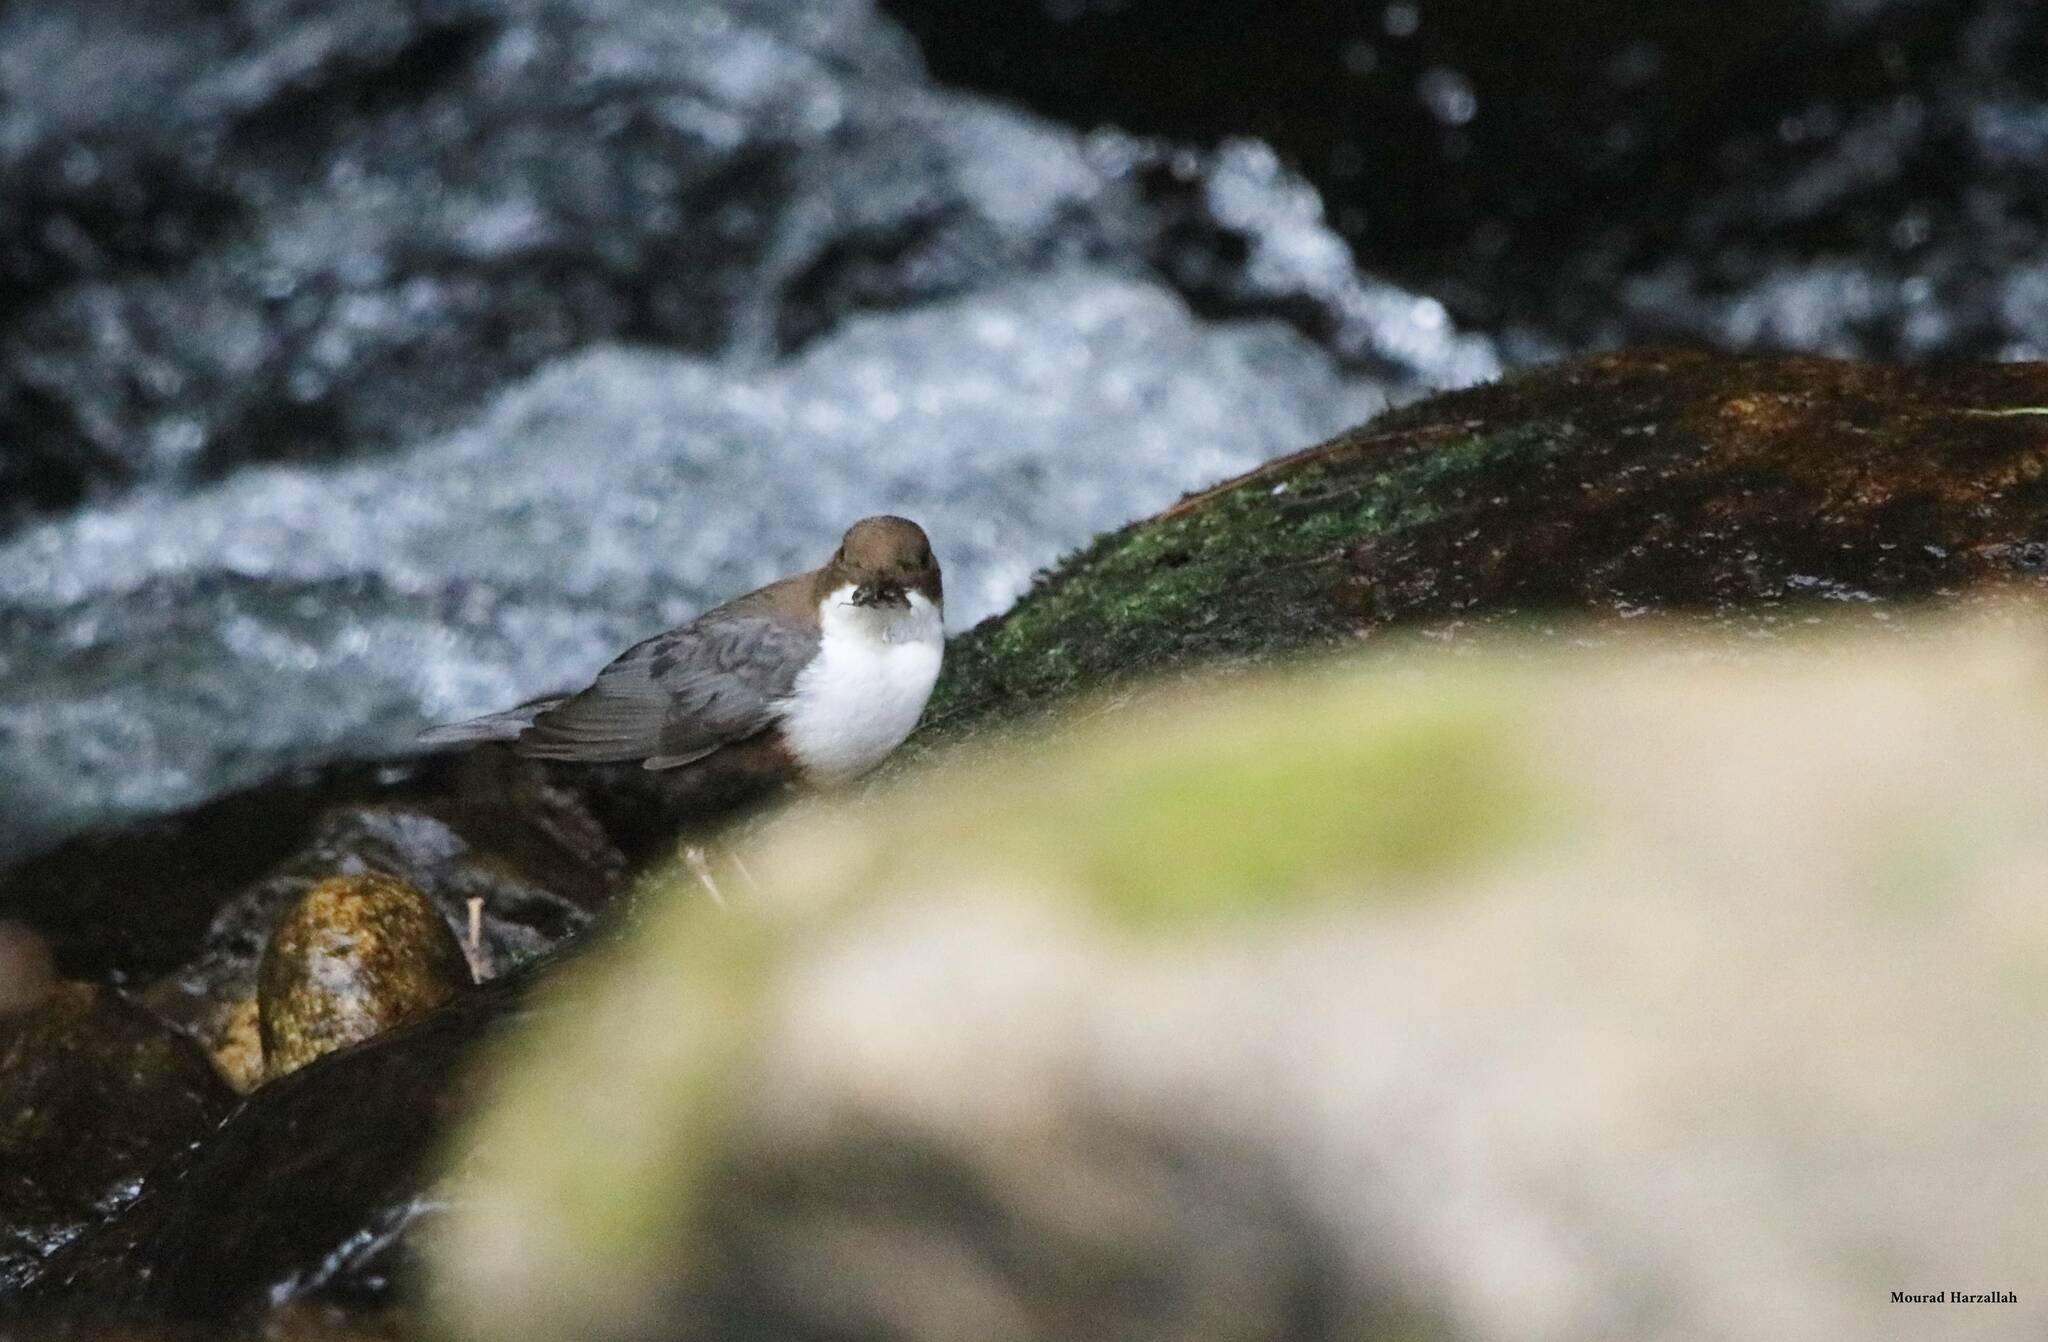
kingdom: Animalia
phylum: Chordata
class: Aves
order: Passeriformes
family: Cinclidae
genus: Cinclus
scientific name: Cinclus cinclus
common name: White-throated dipper
